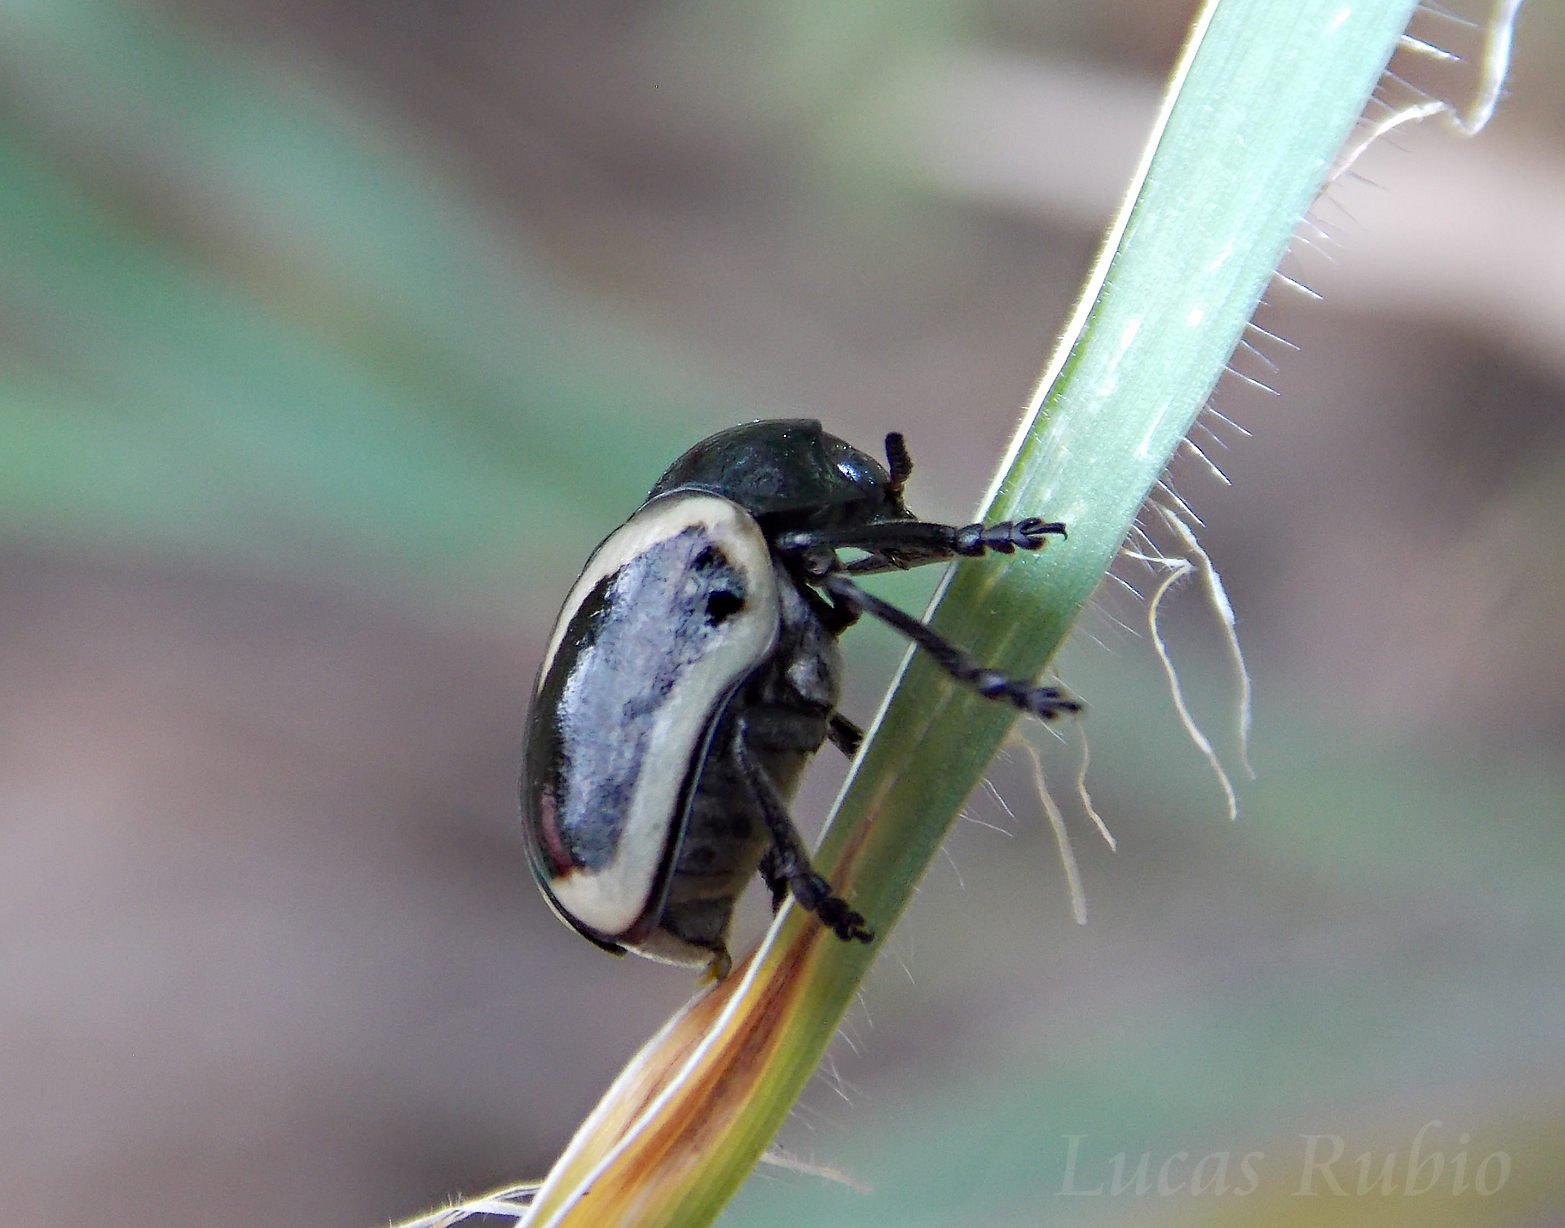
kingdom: Animalia
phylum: Arthropoda
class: Insecta
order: Coleoptera
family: Chrysomelidae
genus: Stereoma
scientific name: Stereoma
